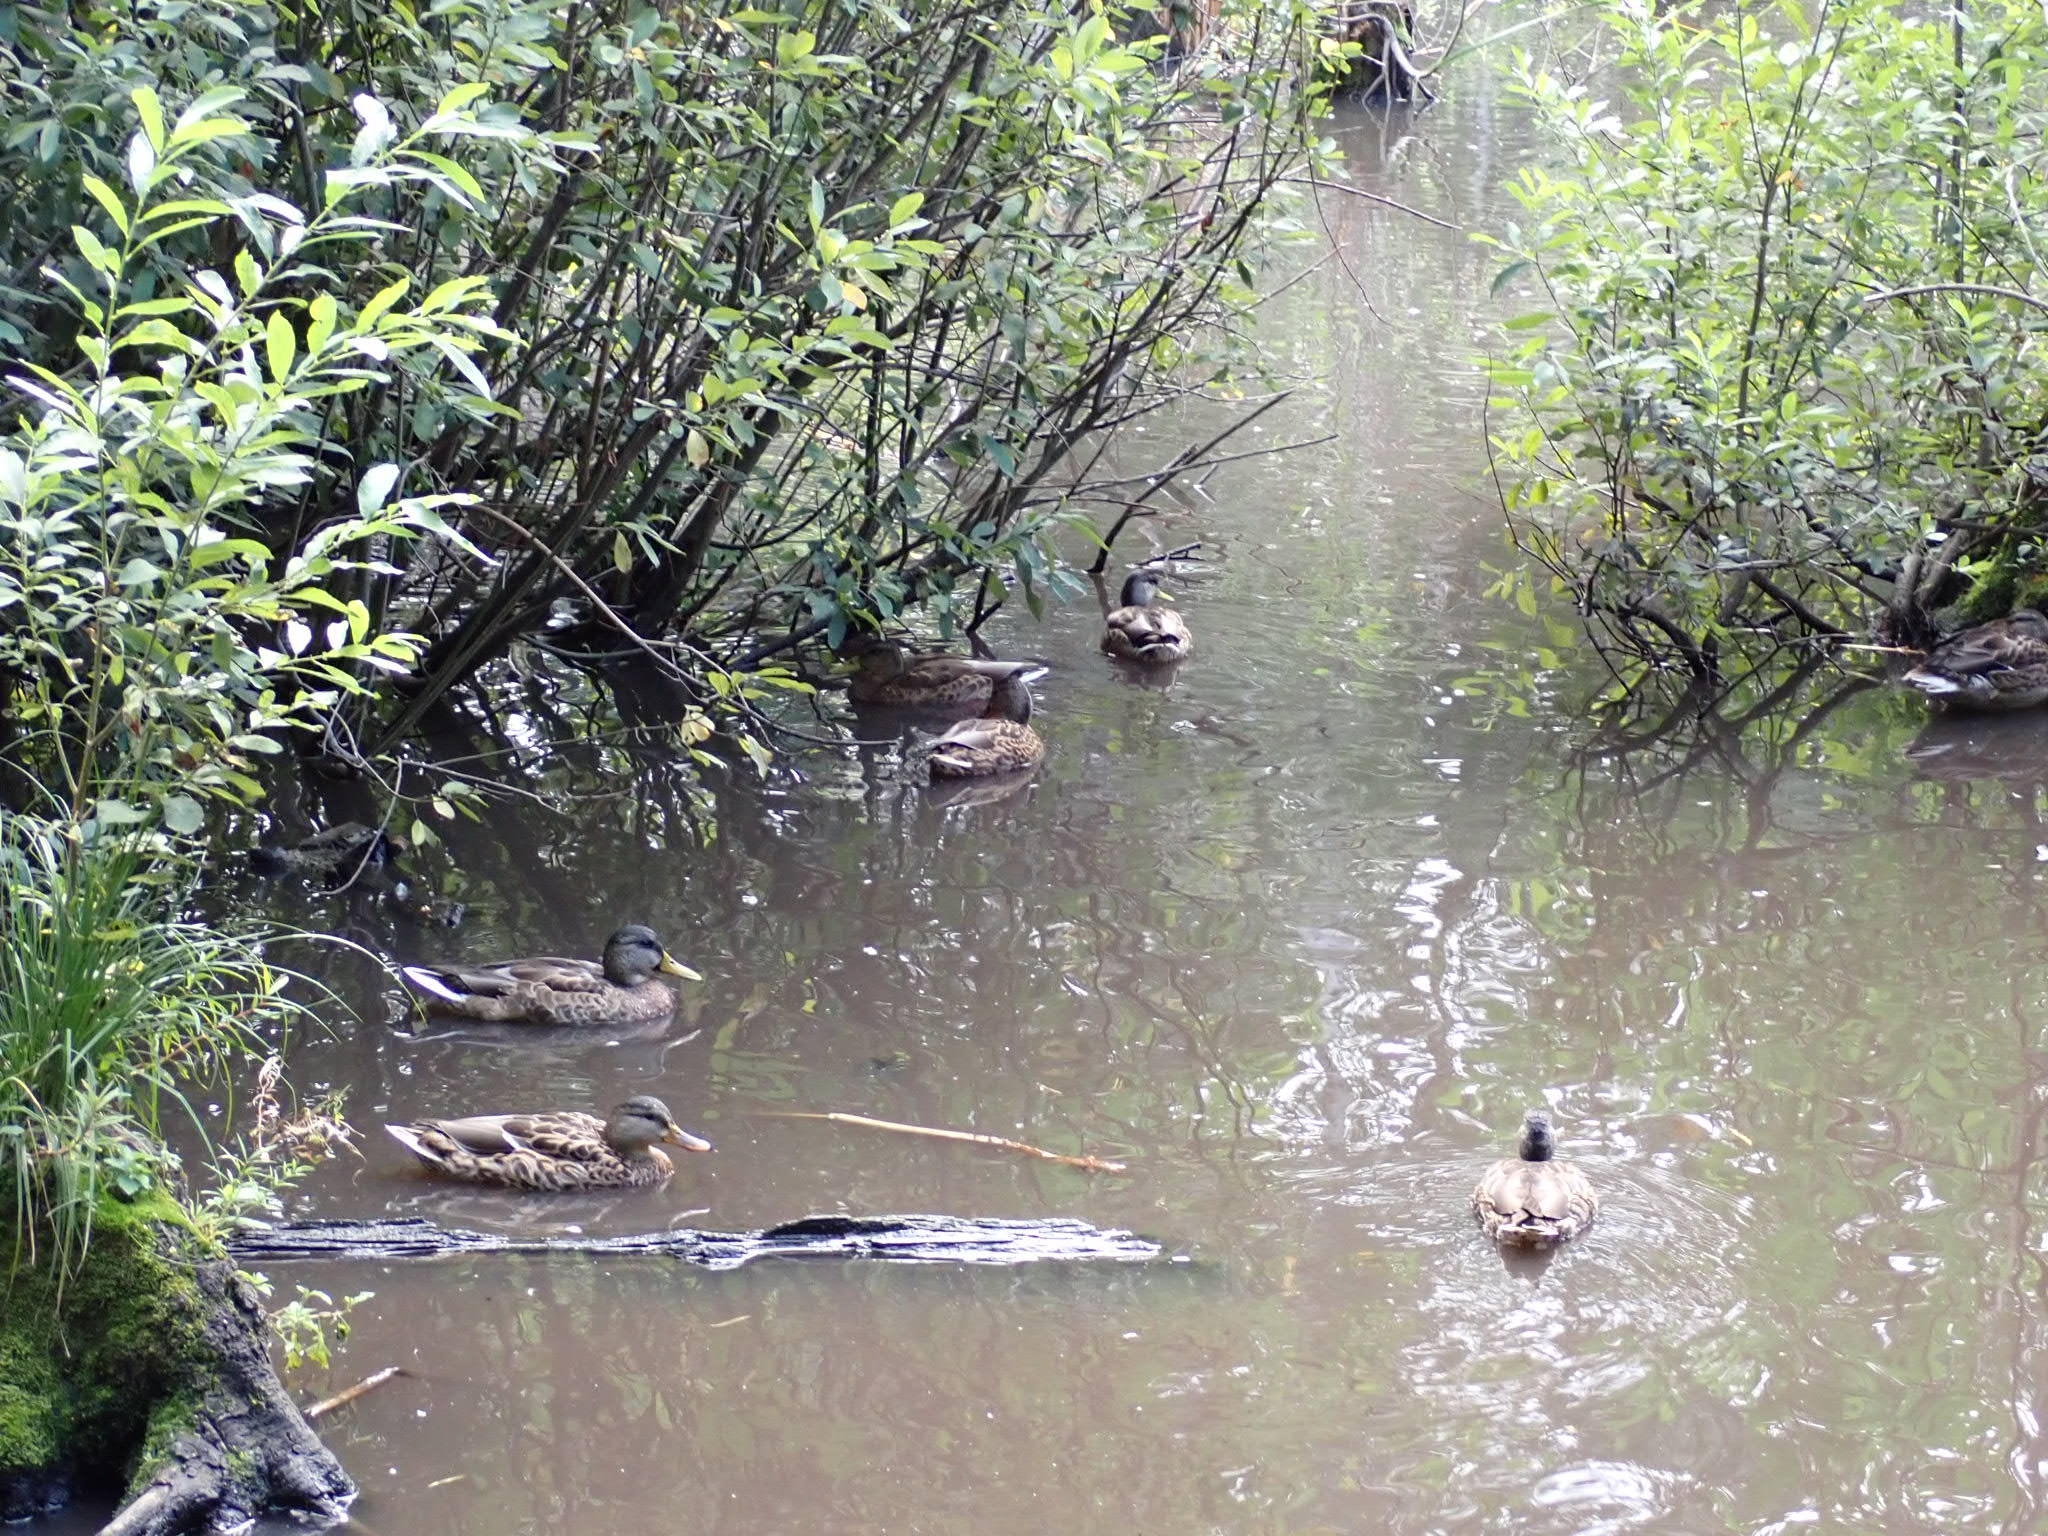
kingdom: Animalia
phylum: Chordata
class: Aves
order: Anseriformes
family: Anatidae
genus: Anas
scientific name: Anas platyrhynchos
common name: Mallard
